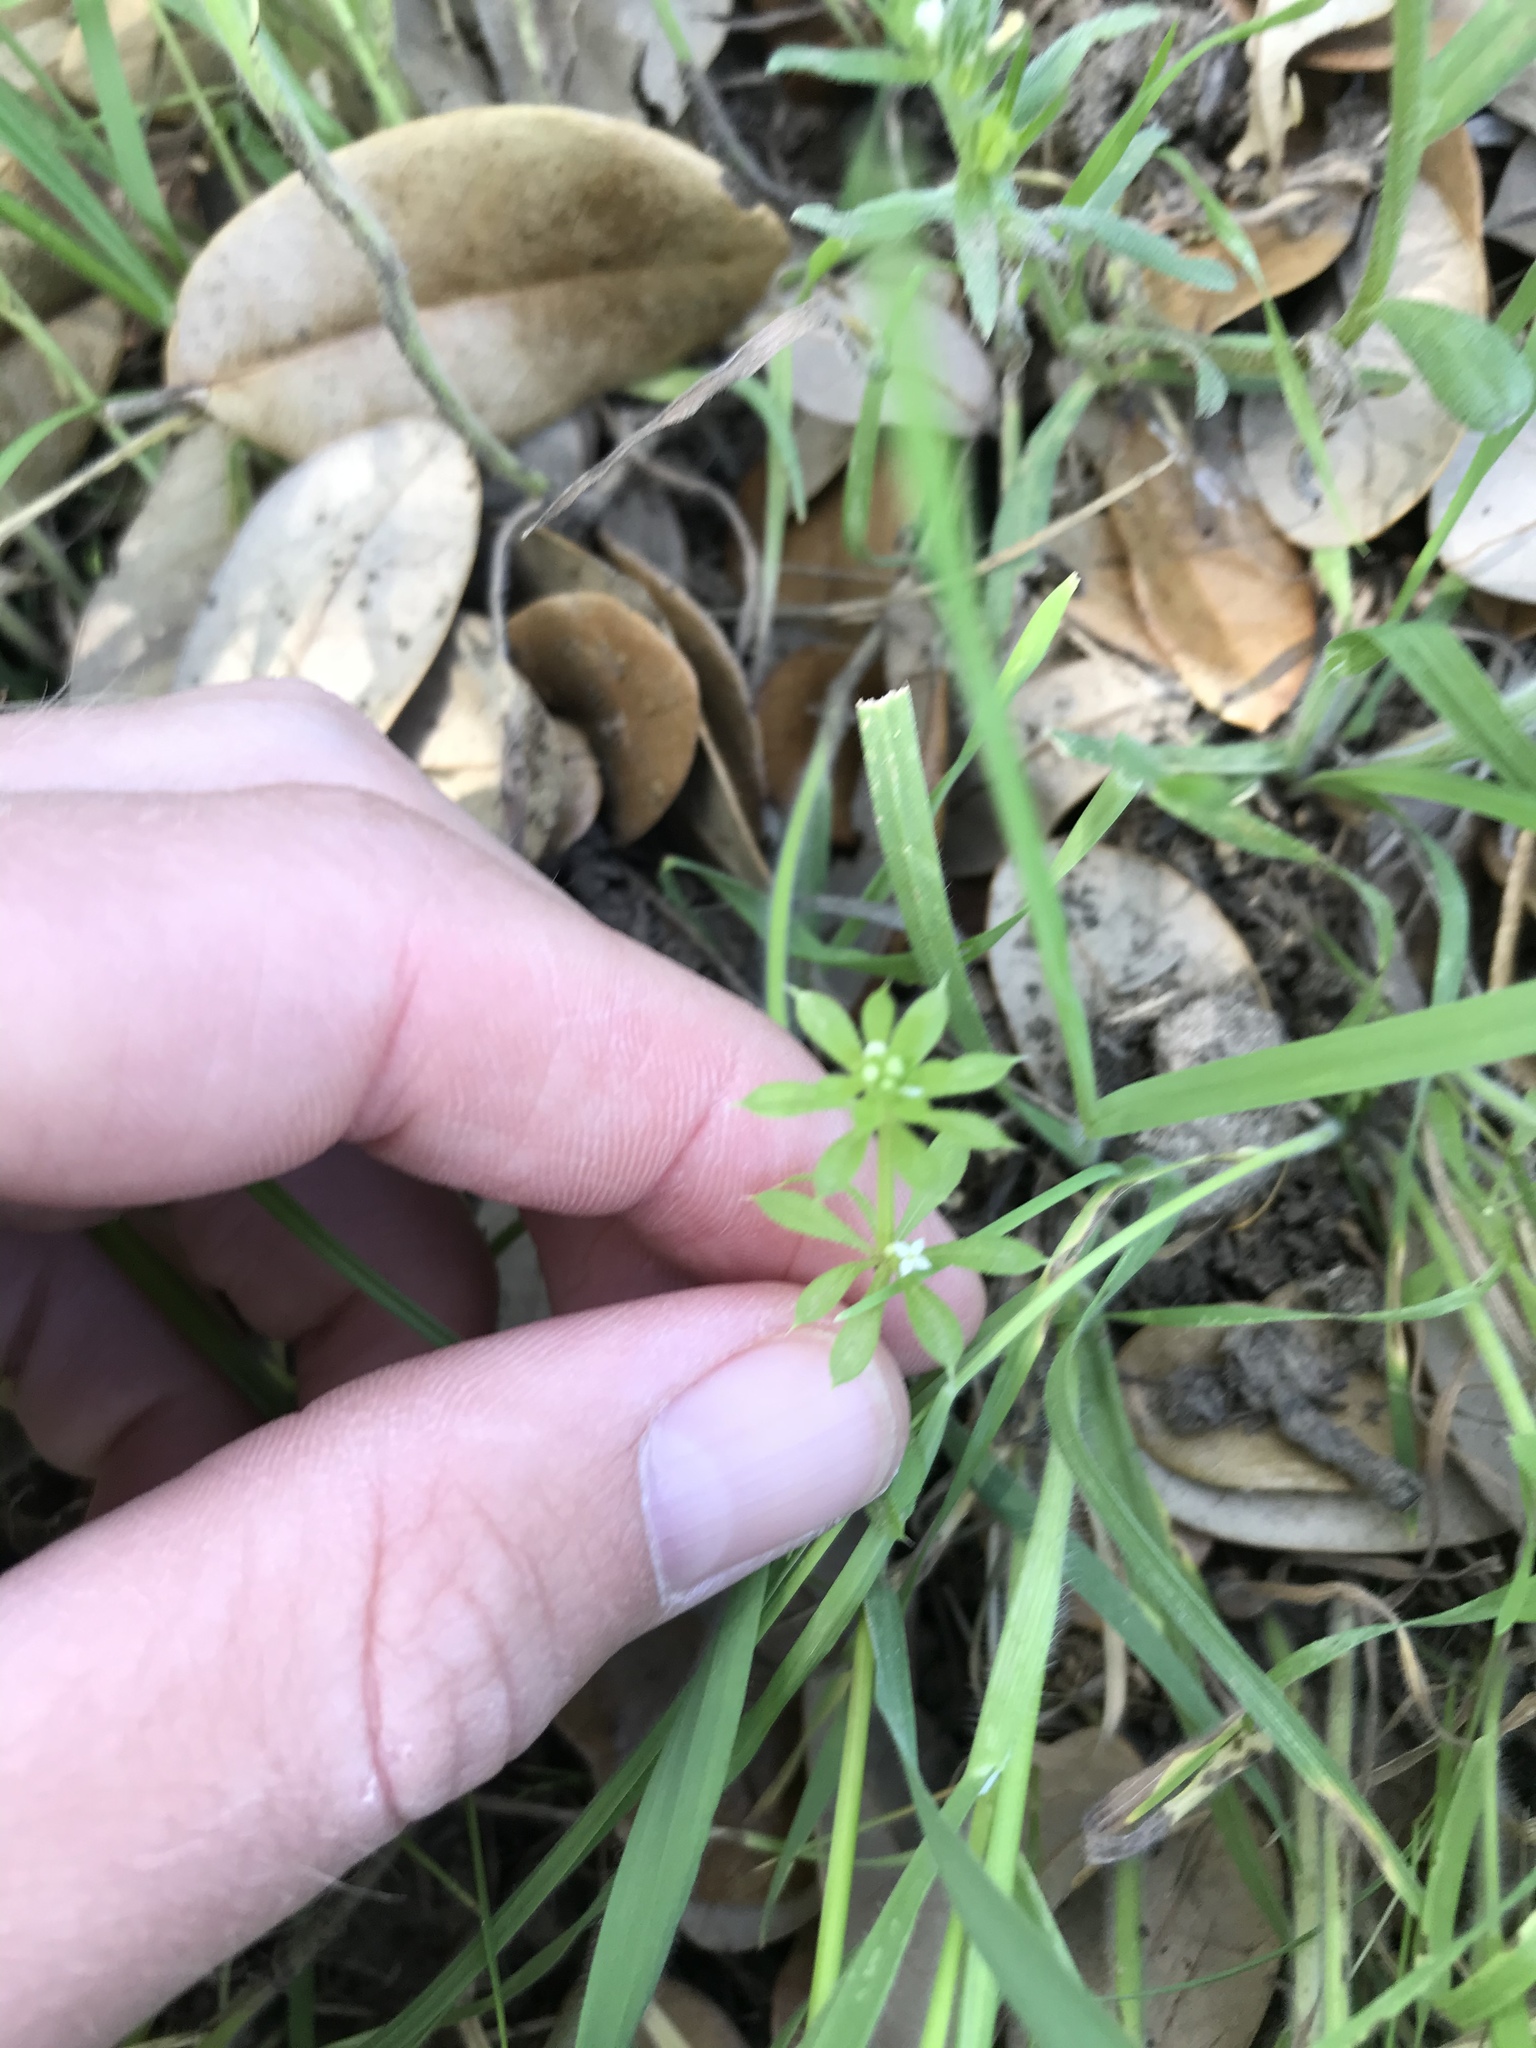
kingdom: Plantae
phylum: Tracheophyta
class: Magnoliopsida
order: Gentianales
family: Rubiaceae
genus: Galium
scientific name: Galium aparine
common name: Cleavers
